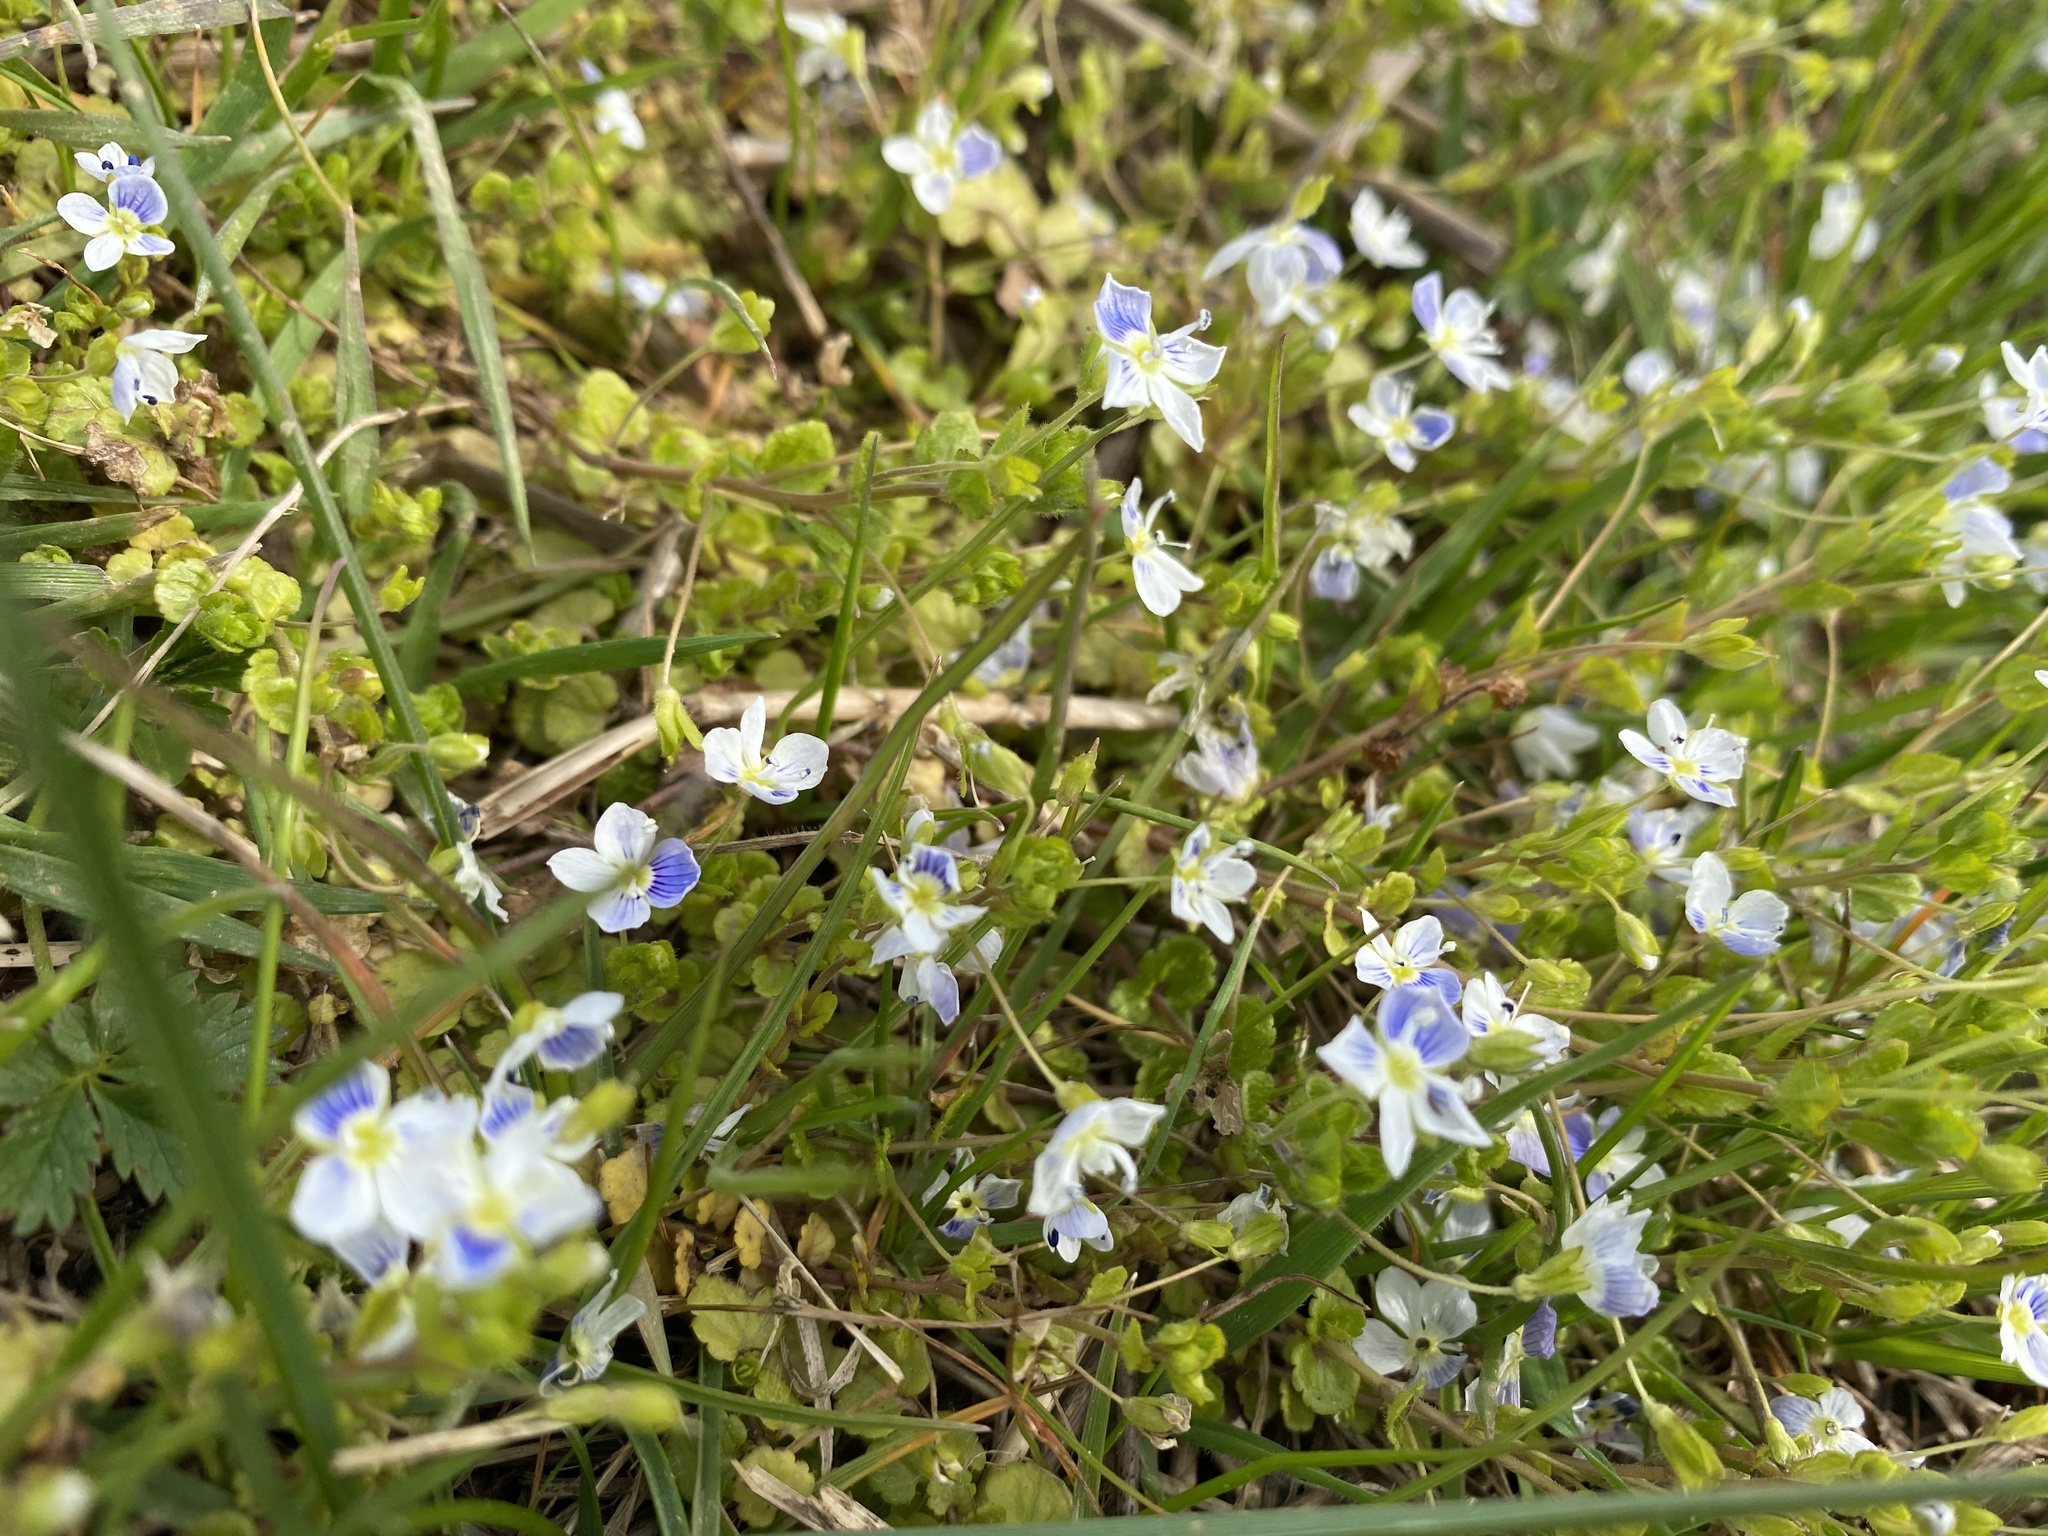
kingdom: Plantae
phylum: Tracheophyta
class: Magnoliopsida
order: Lamiales
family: Plantaginaceae
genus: Veronica
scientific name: Veronica filiformis
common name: Slender speedwell
